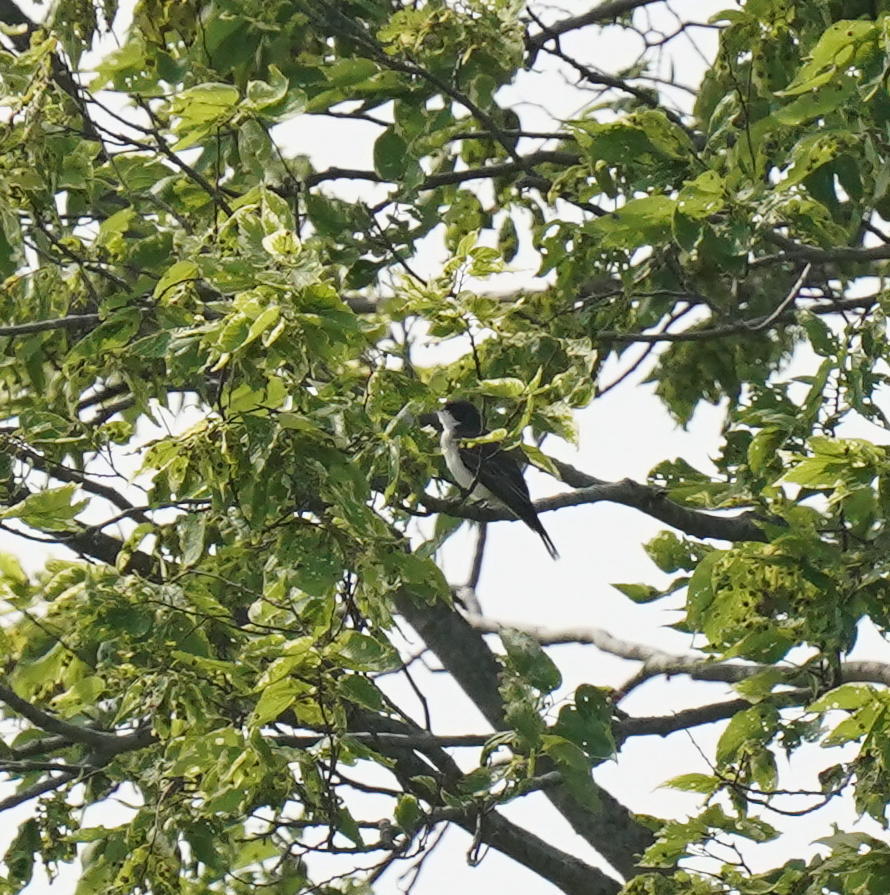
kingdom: Animalia
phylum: Chordata
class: Aves
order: Passeriformes
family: Tyrannidae
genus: Tyrannus
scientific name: Tyrannus tyrannus
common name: Eastern kingbird
